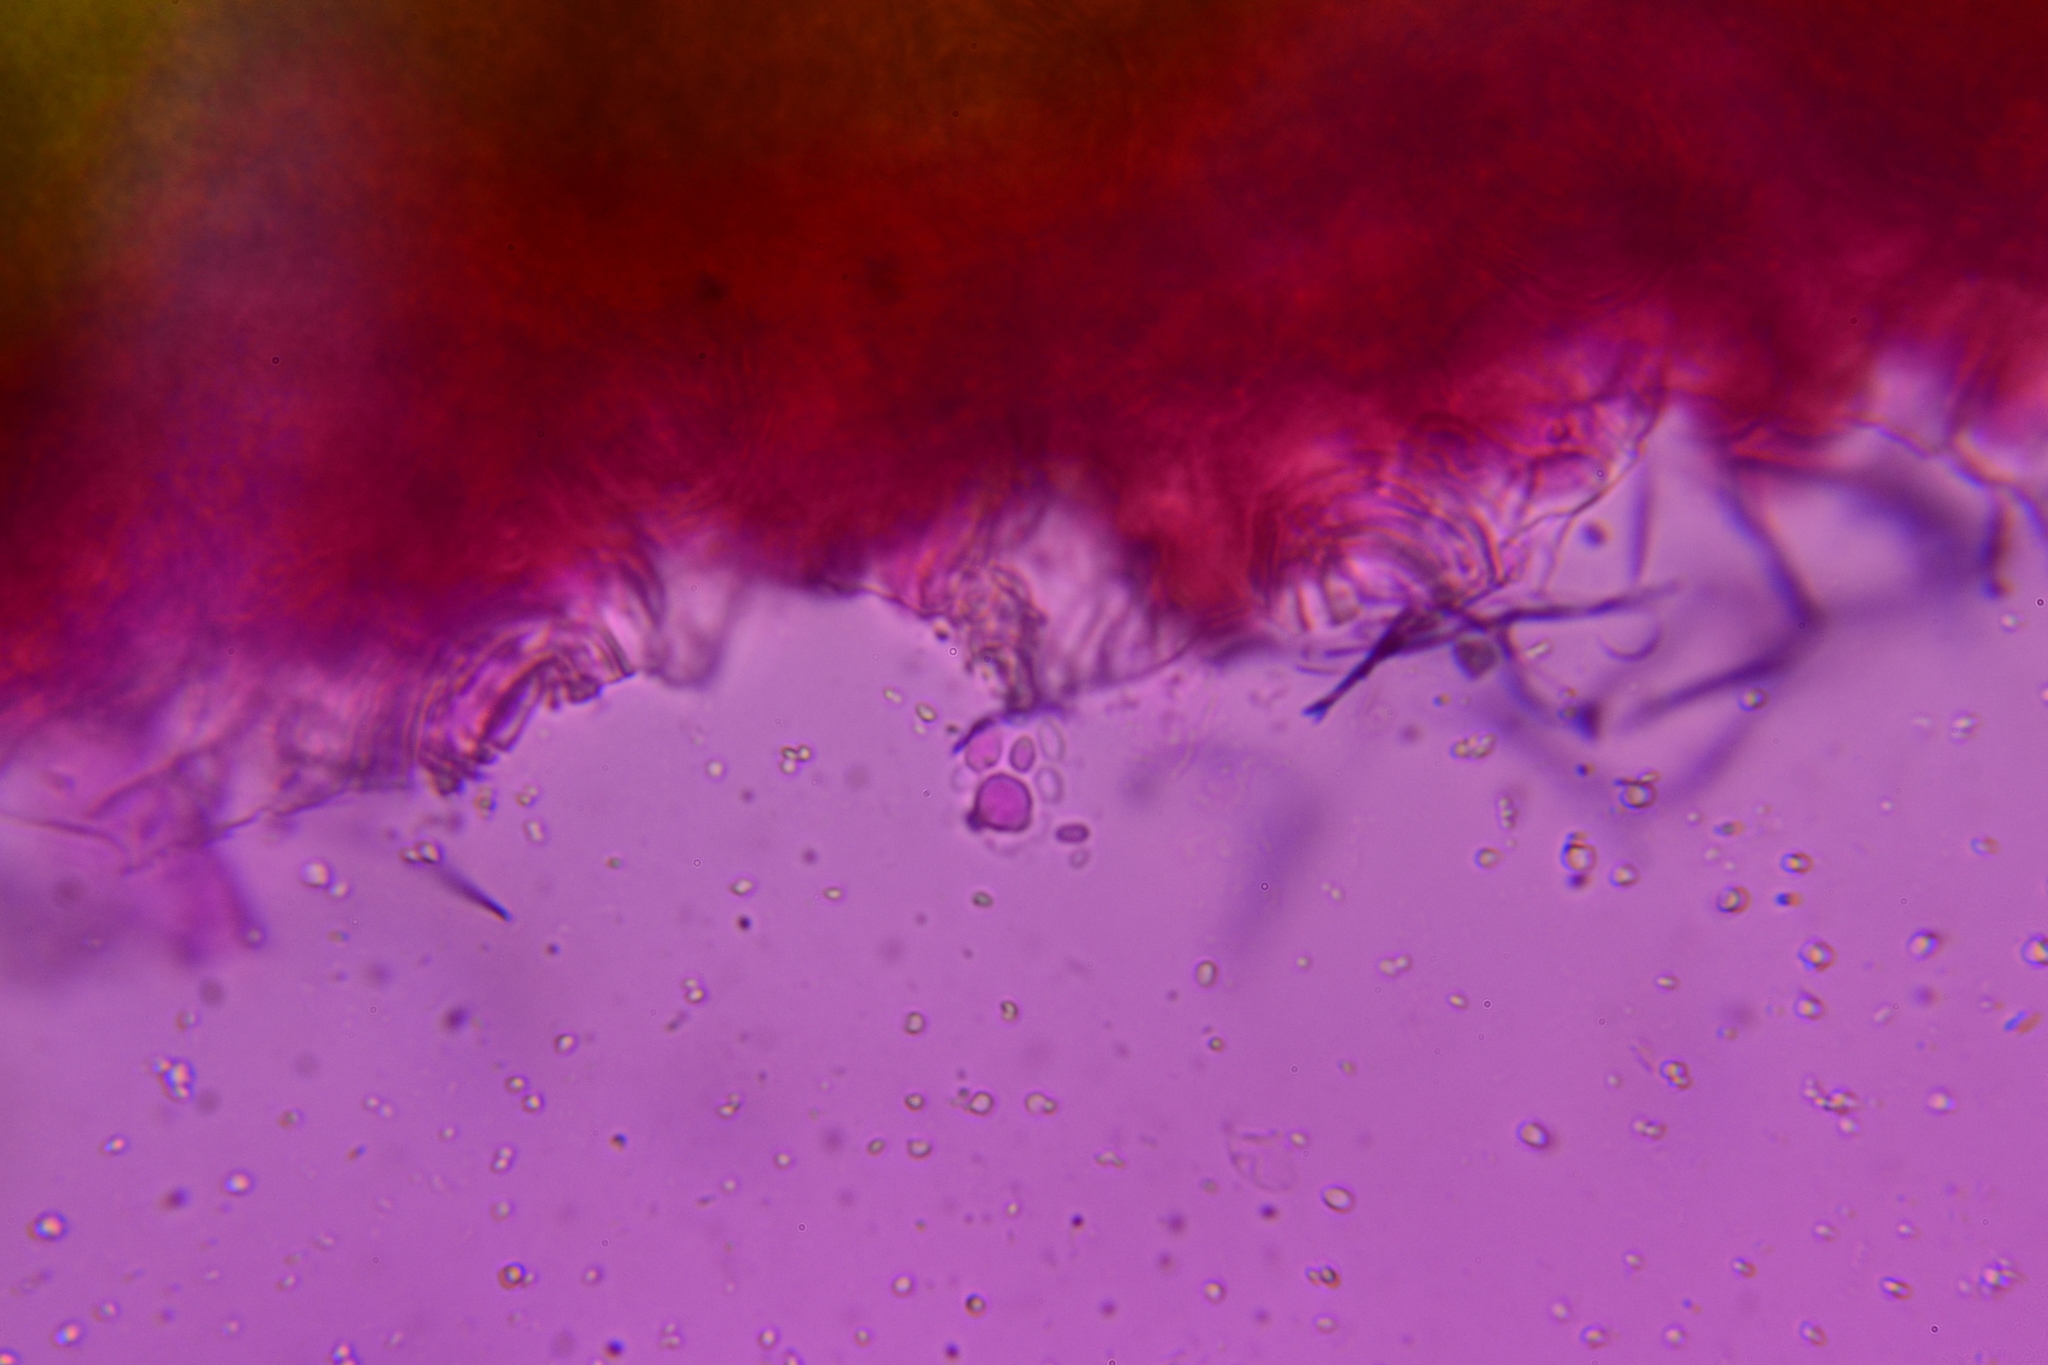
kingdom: Fungi
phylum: Ascomycota
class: Taphrinomycetes
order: Taphrinales
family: Taphrinaceae
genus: Taphrina
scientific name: Taphrina deformans
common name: Peach leaf curl
